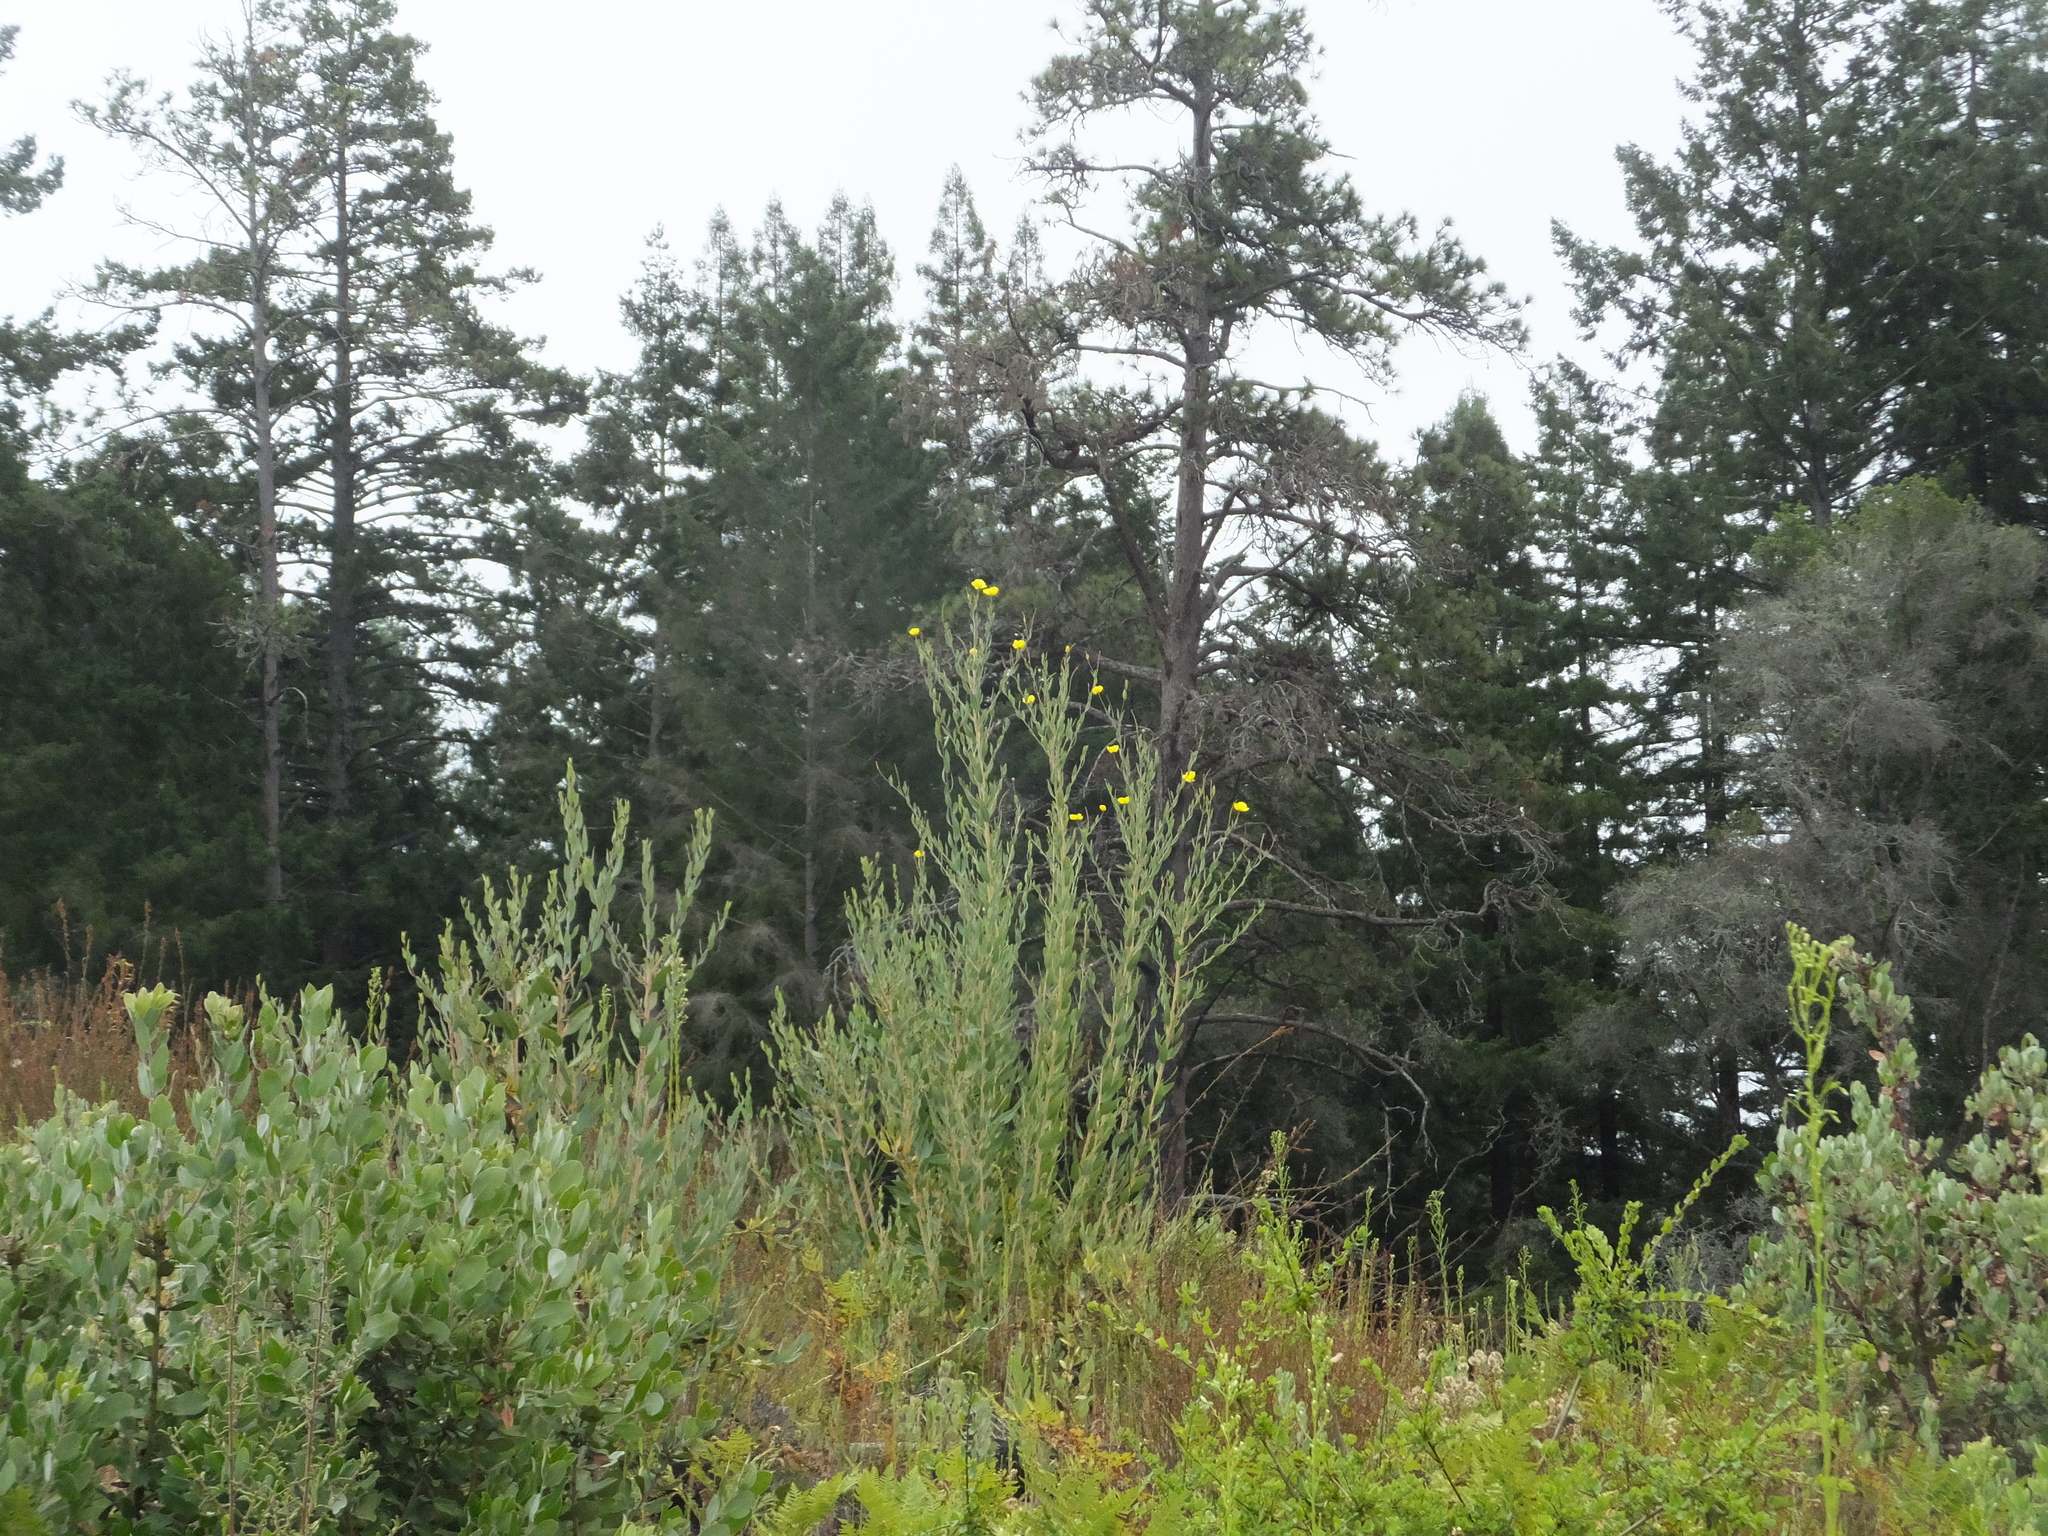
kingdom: Plantae
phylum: Tracheophyta
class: Magnoliopsida
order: Ranunculales
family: Papaveraceae
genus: Dendromecon
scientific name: Dendromecon rigida
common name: Tree poppy
